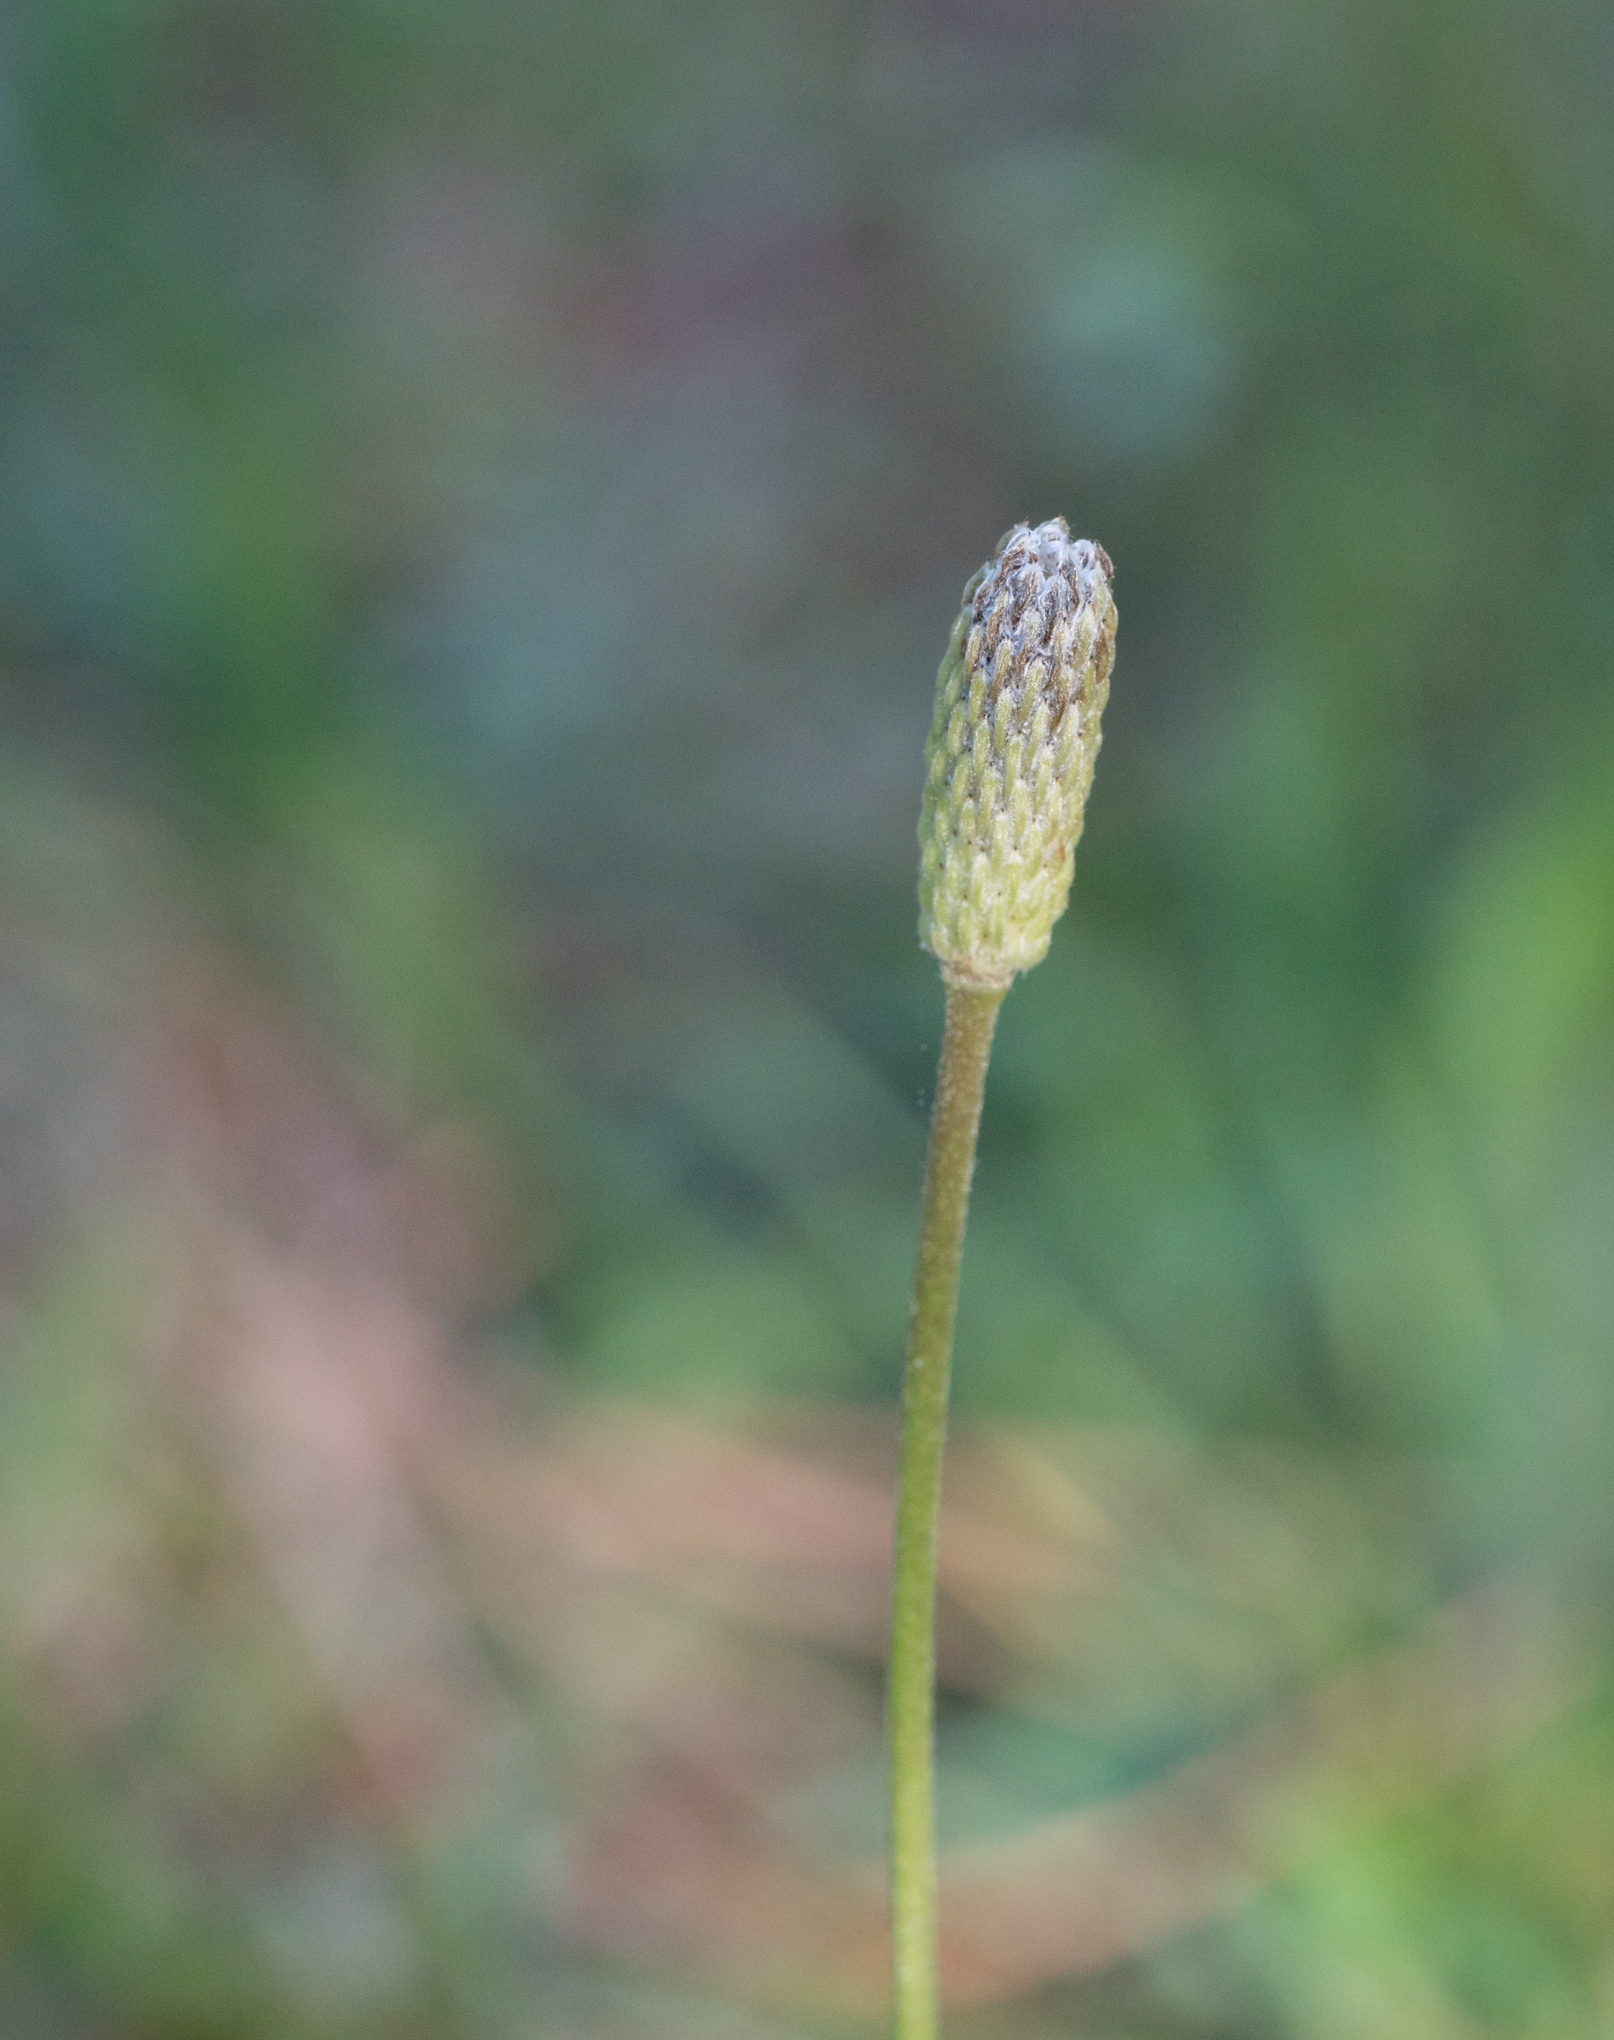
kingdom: Plantae
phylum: Tracheophyta
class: Magnoliopsida
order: Ranunculales
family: Ranunculaceae
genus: Anemone
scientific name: Anemone berlandieri
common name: Ten-petal anemone
